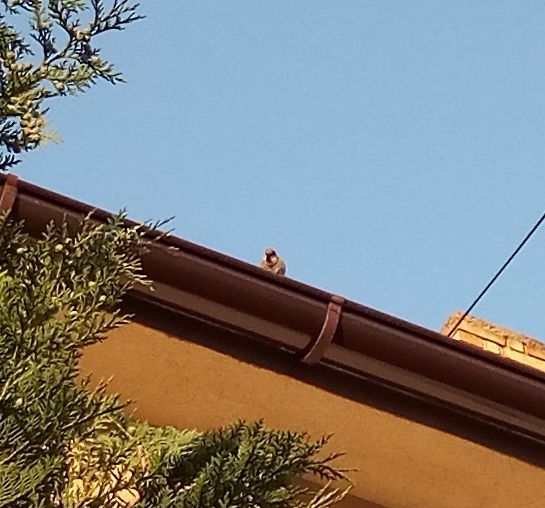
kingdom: Animalia
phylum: Chordata
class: Aves
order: Passeriformes
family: Passeridae
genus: Passer
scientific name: Passer domesticus
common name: House sparrow
